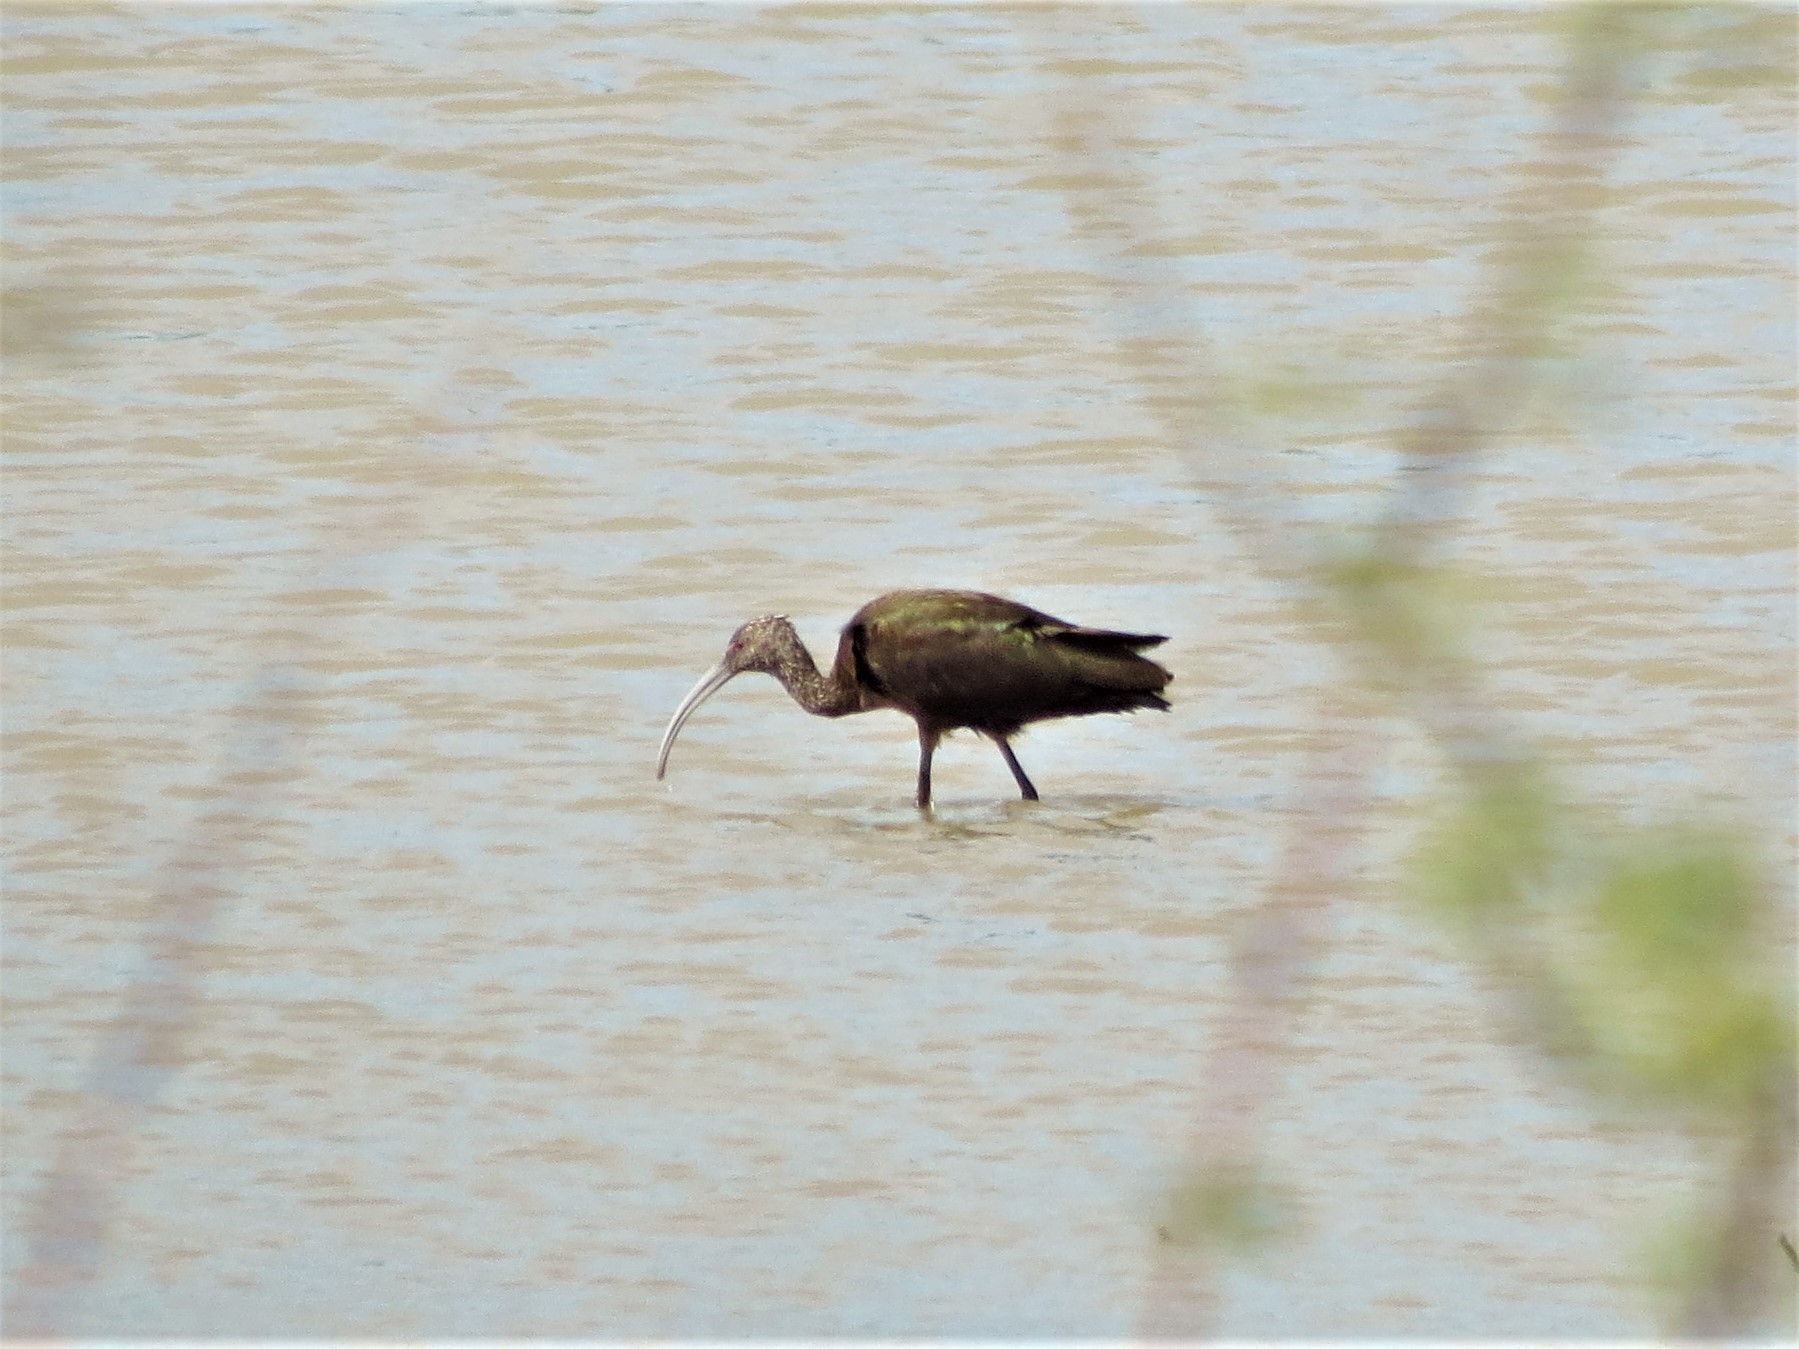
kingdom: Animalia
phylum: Chordata
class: Aves
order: Pelecaniformes
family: Threskiornithidae
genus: Plegadis
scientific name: Plegadis chihi
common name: White-faced ibis
